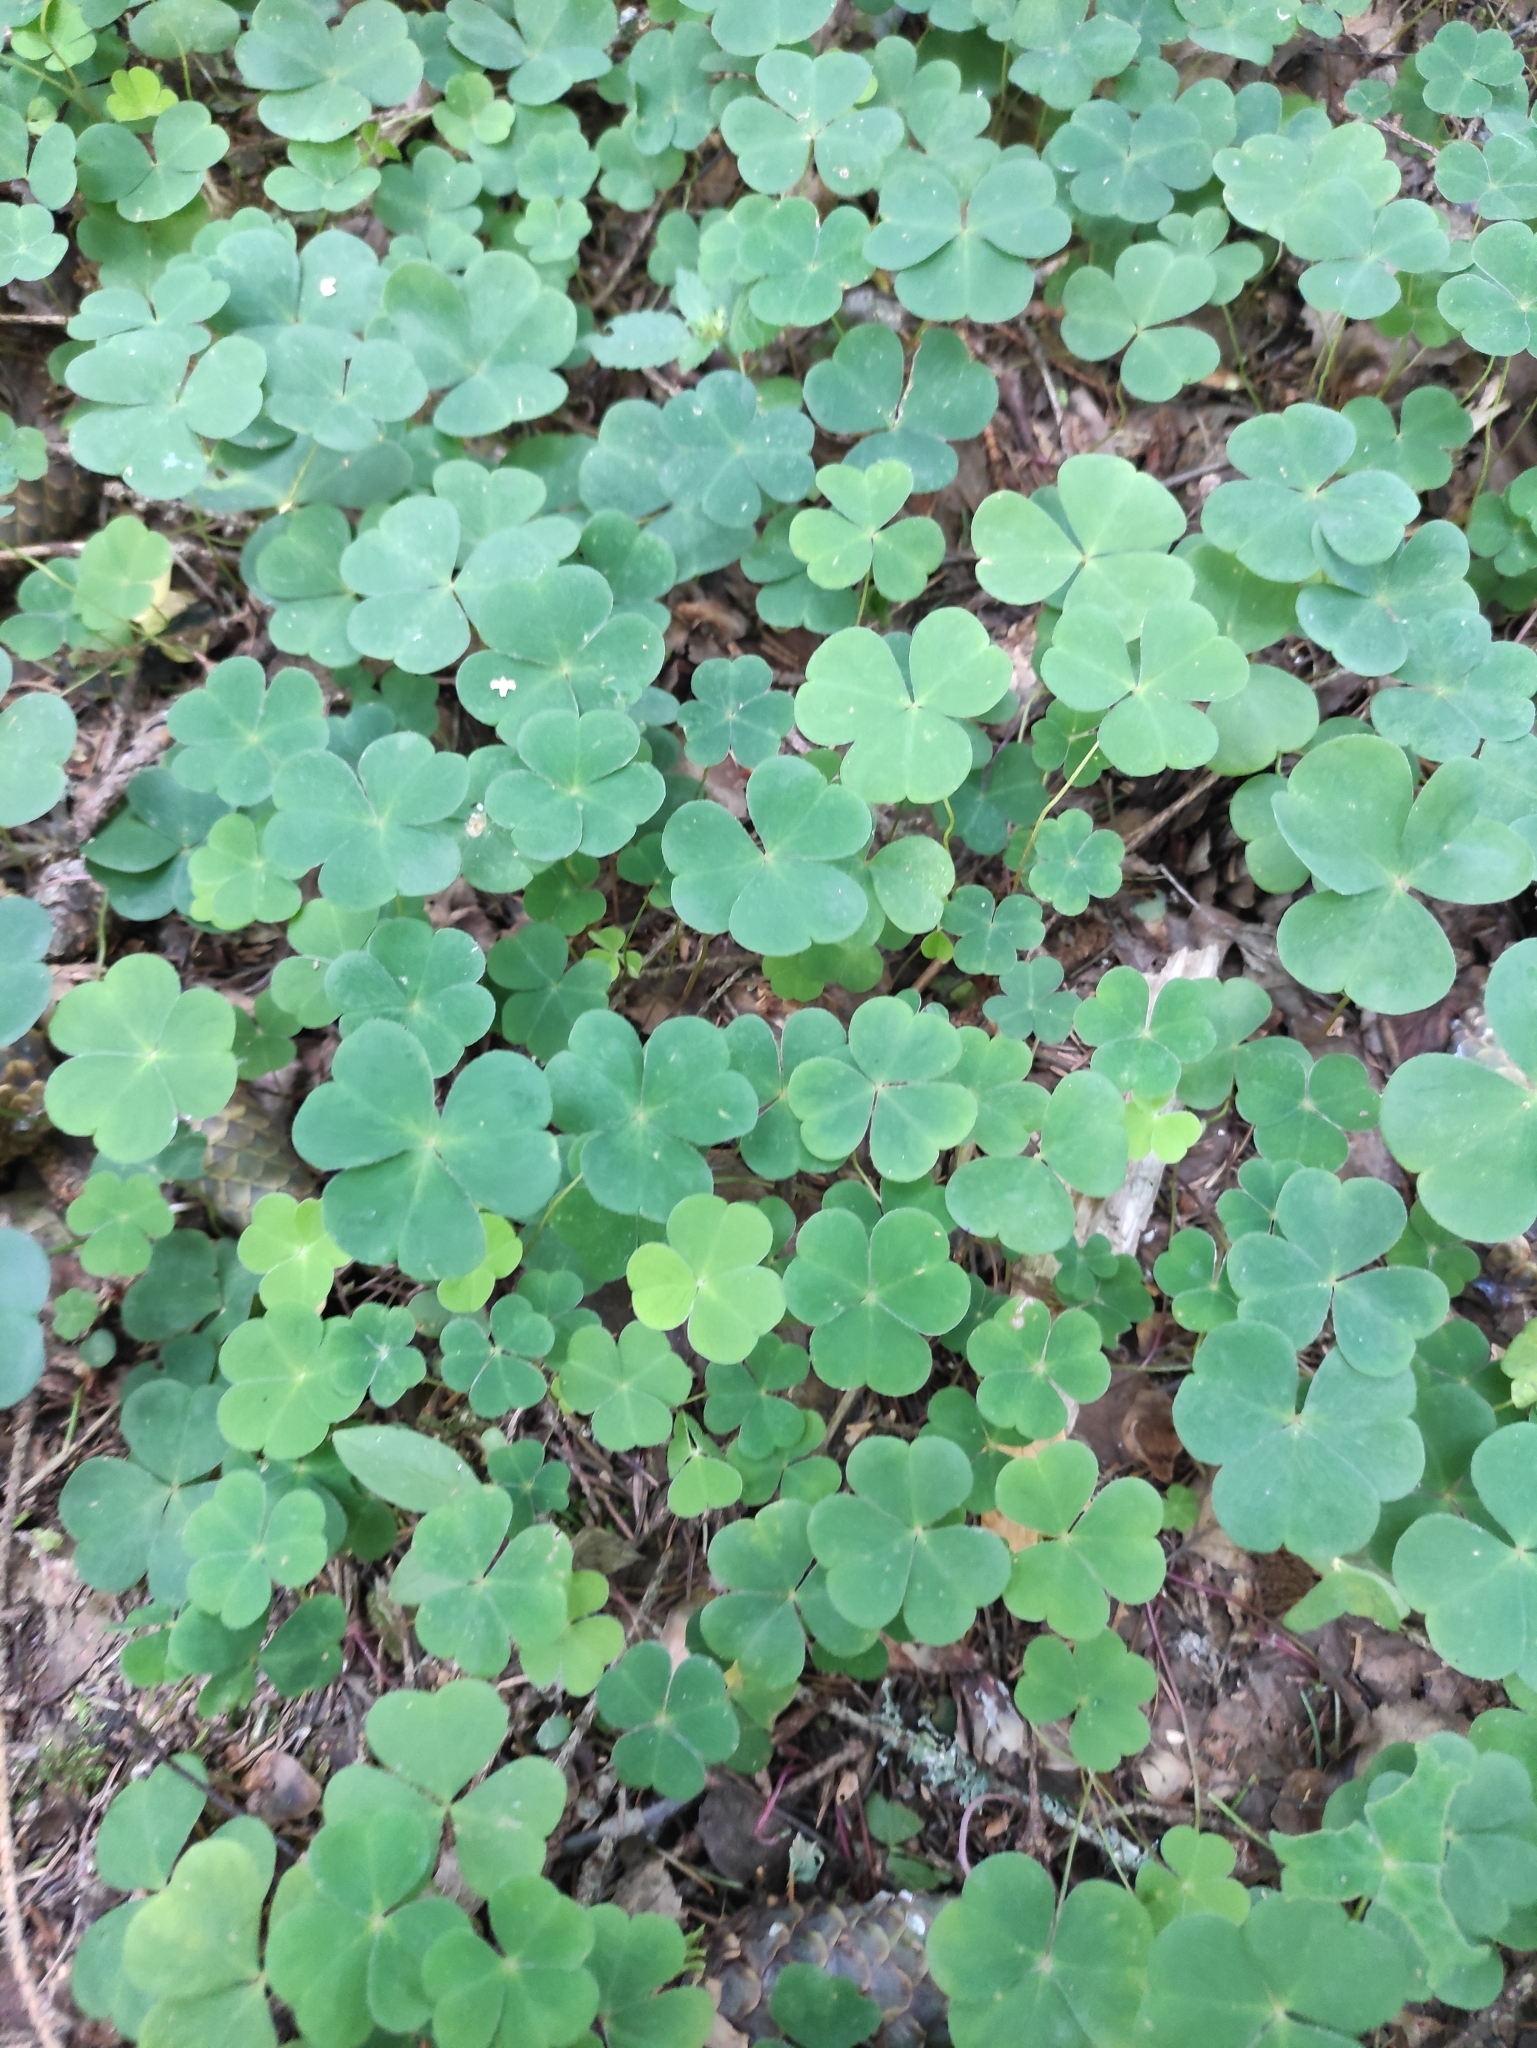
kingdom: Plantae
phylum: Tracheophyta
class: Magnoliopsida
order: Oxalidales
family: Oxalidaceae
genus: Oxalis
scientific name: Oxalis acetosella
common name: Wood-sorrel
